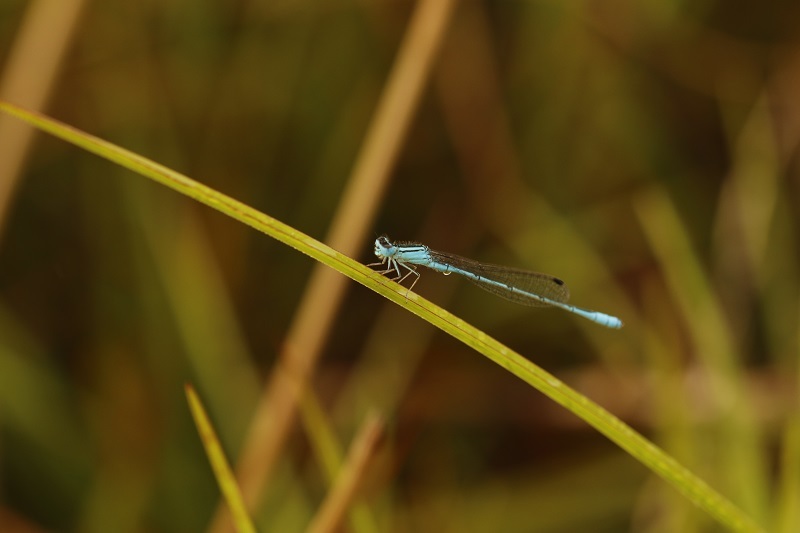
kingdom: Animalia
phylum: Arthropoda
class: Insecta
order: Odonata
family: Coenagrionidae
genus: Africallagma
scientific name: Africallagma glaucum
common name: Swamp bluet
